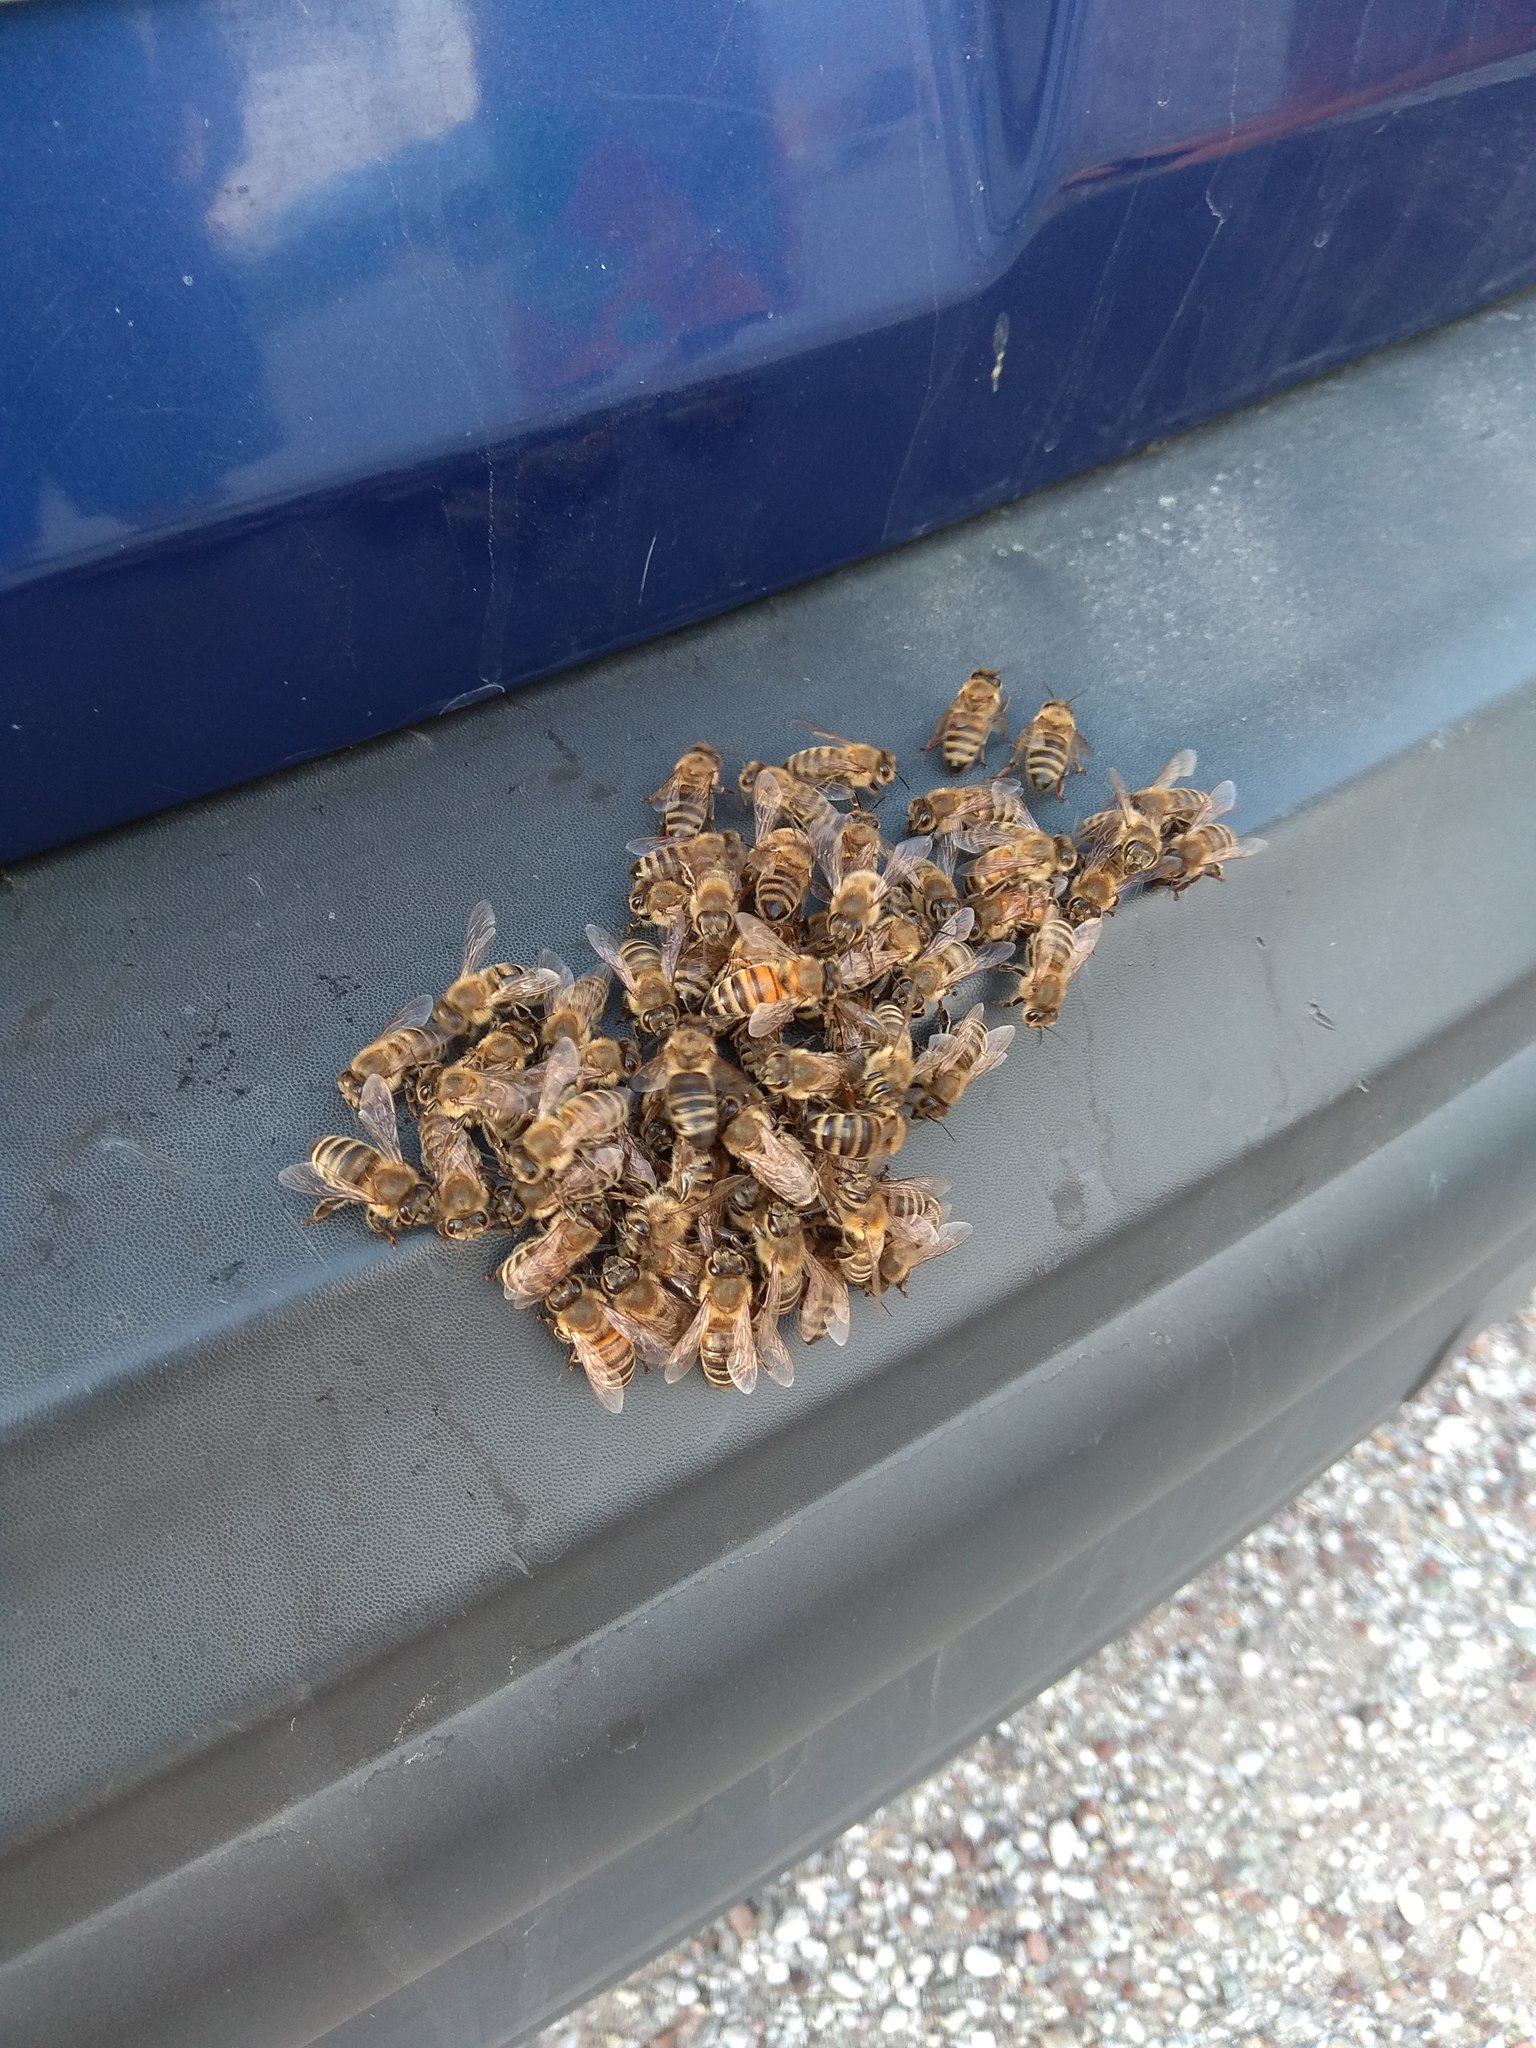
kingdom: Animalia
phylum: Arthropoda
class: Insecta
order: Hymenoptera
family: Apidae
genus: Apis
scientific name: Apis mellifera
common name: Honey bee
